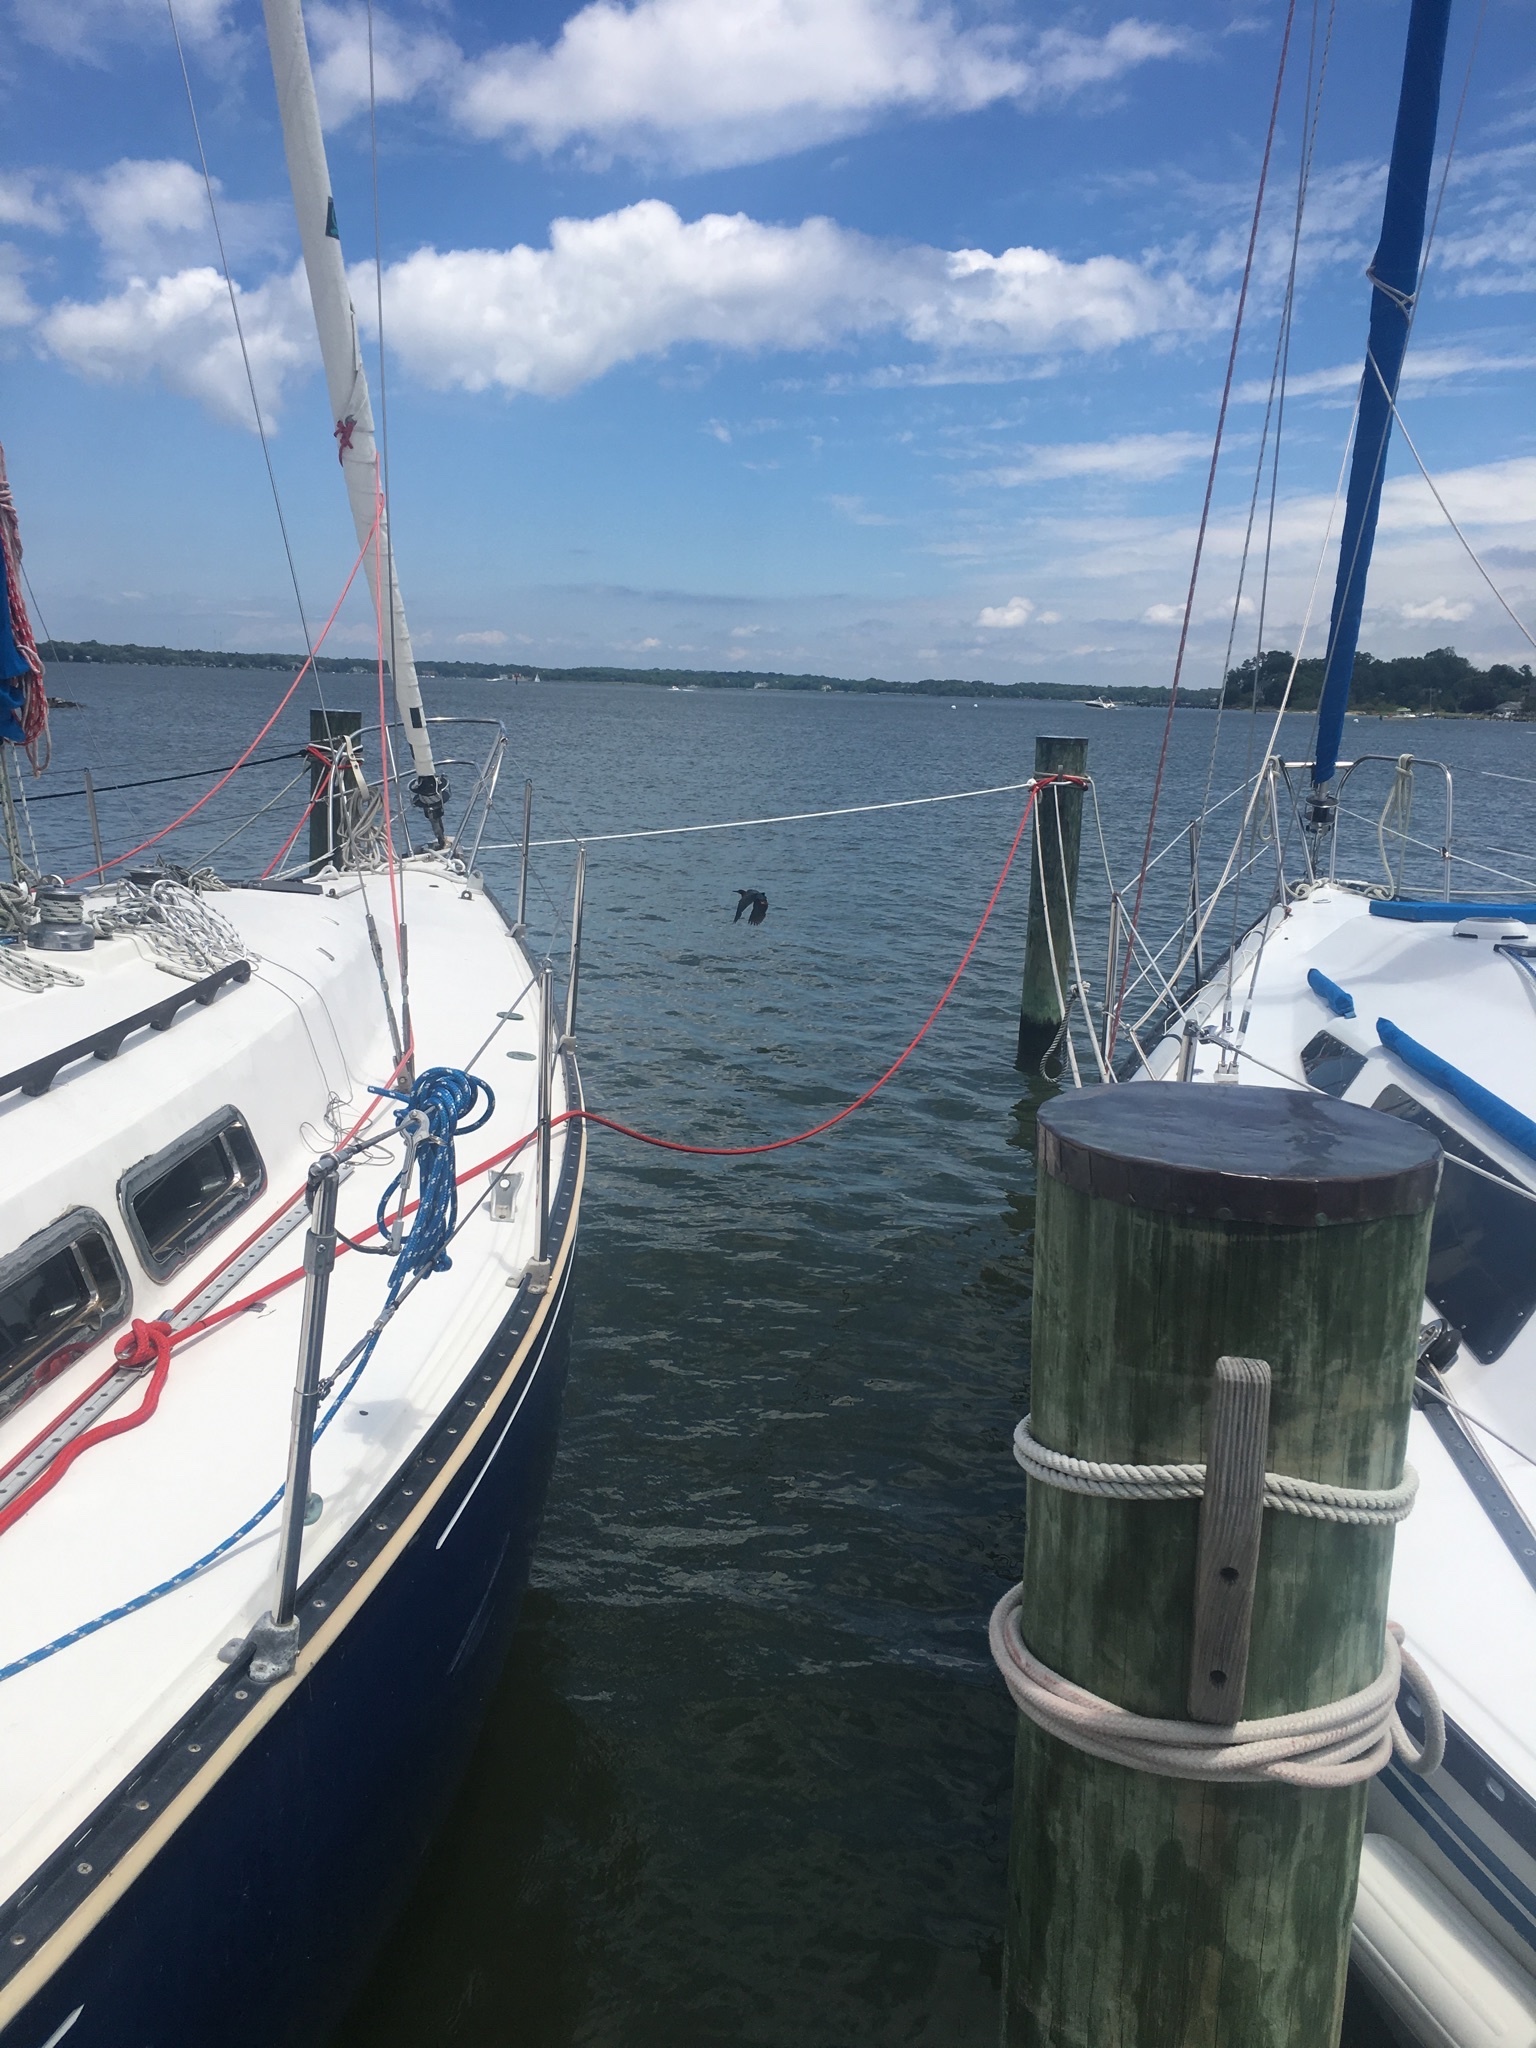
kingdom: Animalia
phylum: Chordata
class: Aves
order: Pelecaniformes
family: Ardeidae
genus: Butorides
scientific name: Butorides virescens
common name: Green heron
